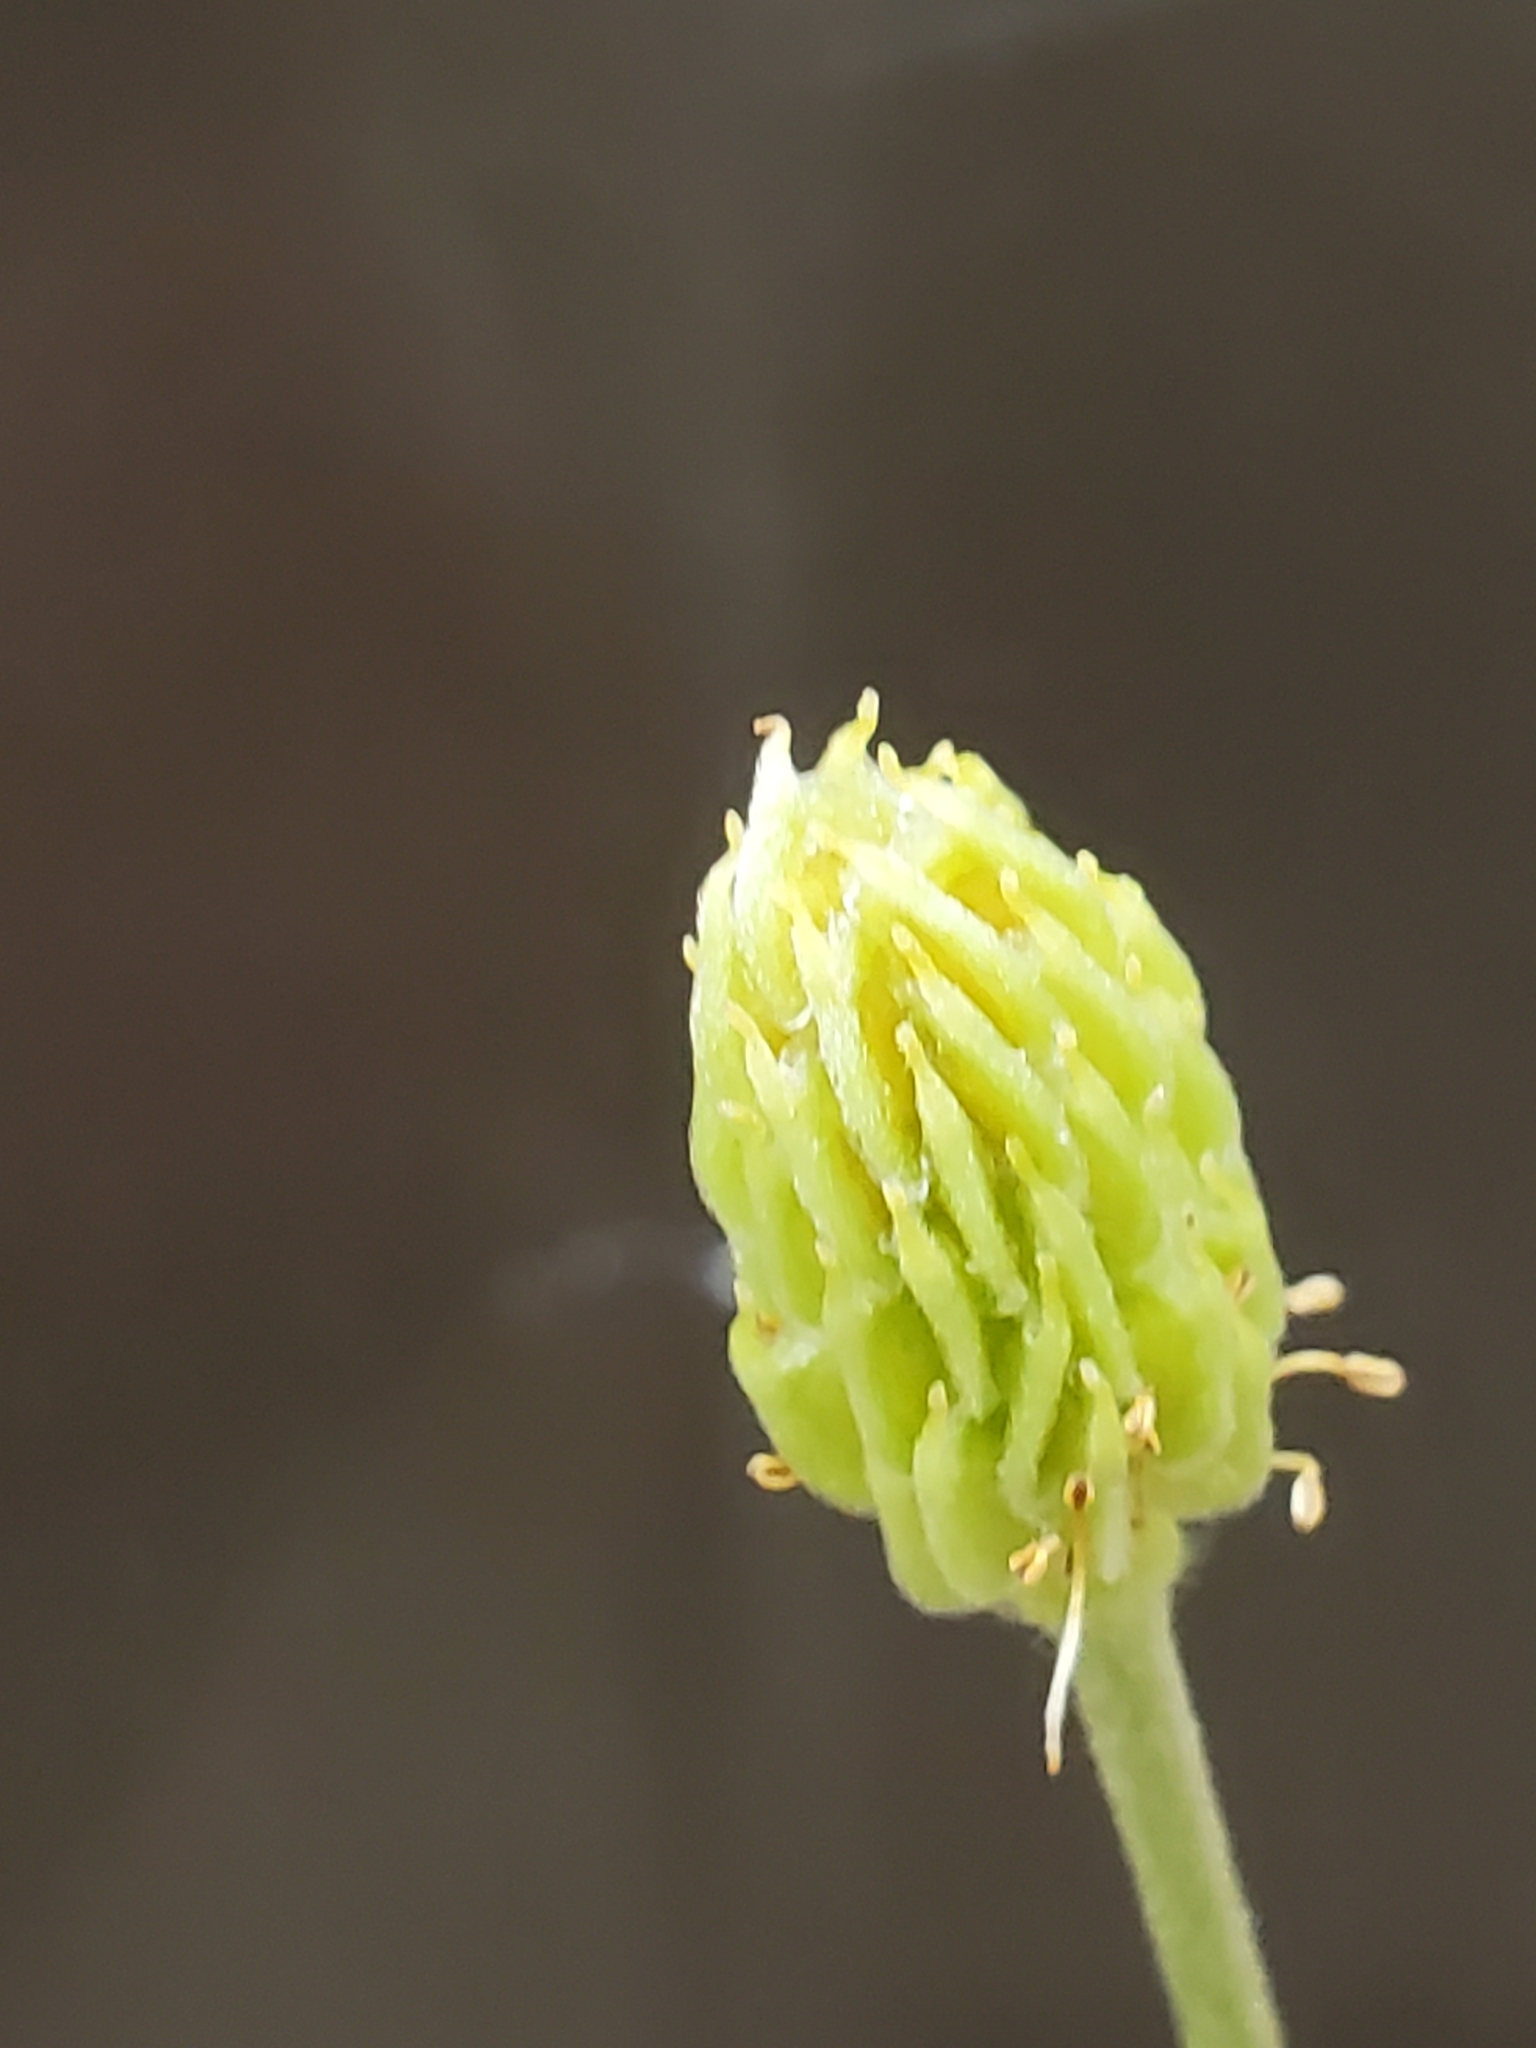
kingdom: Plantae
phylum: Tracheophyta
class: Magnoliopsida
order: Ranunculales
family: Ranunculaceae
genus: Anemone
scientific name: Anemone edwardsiana
